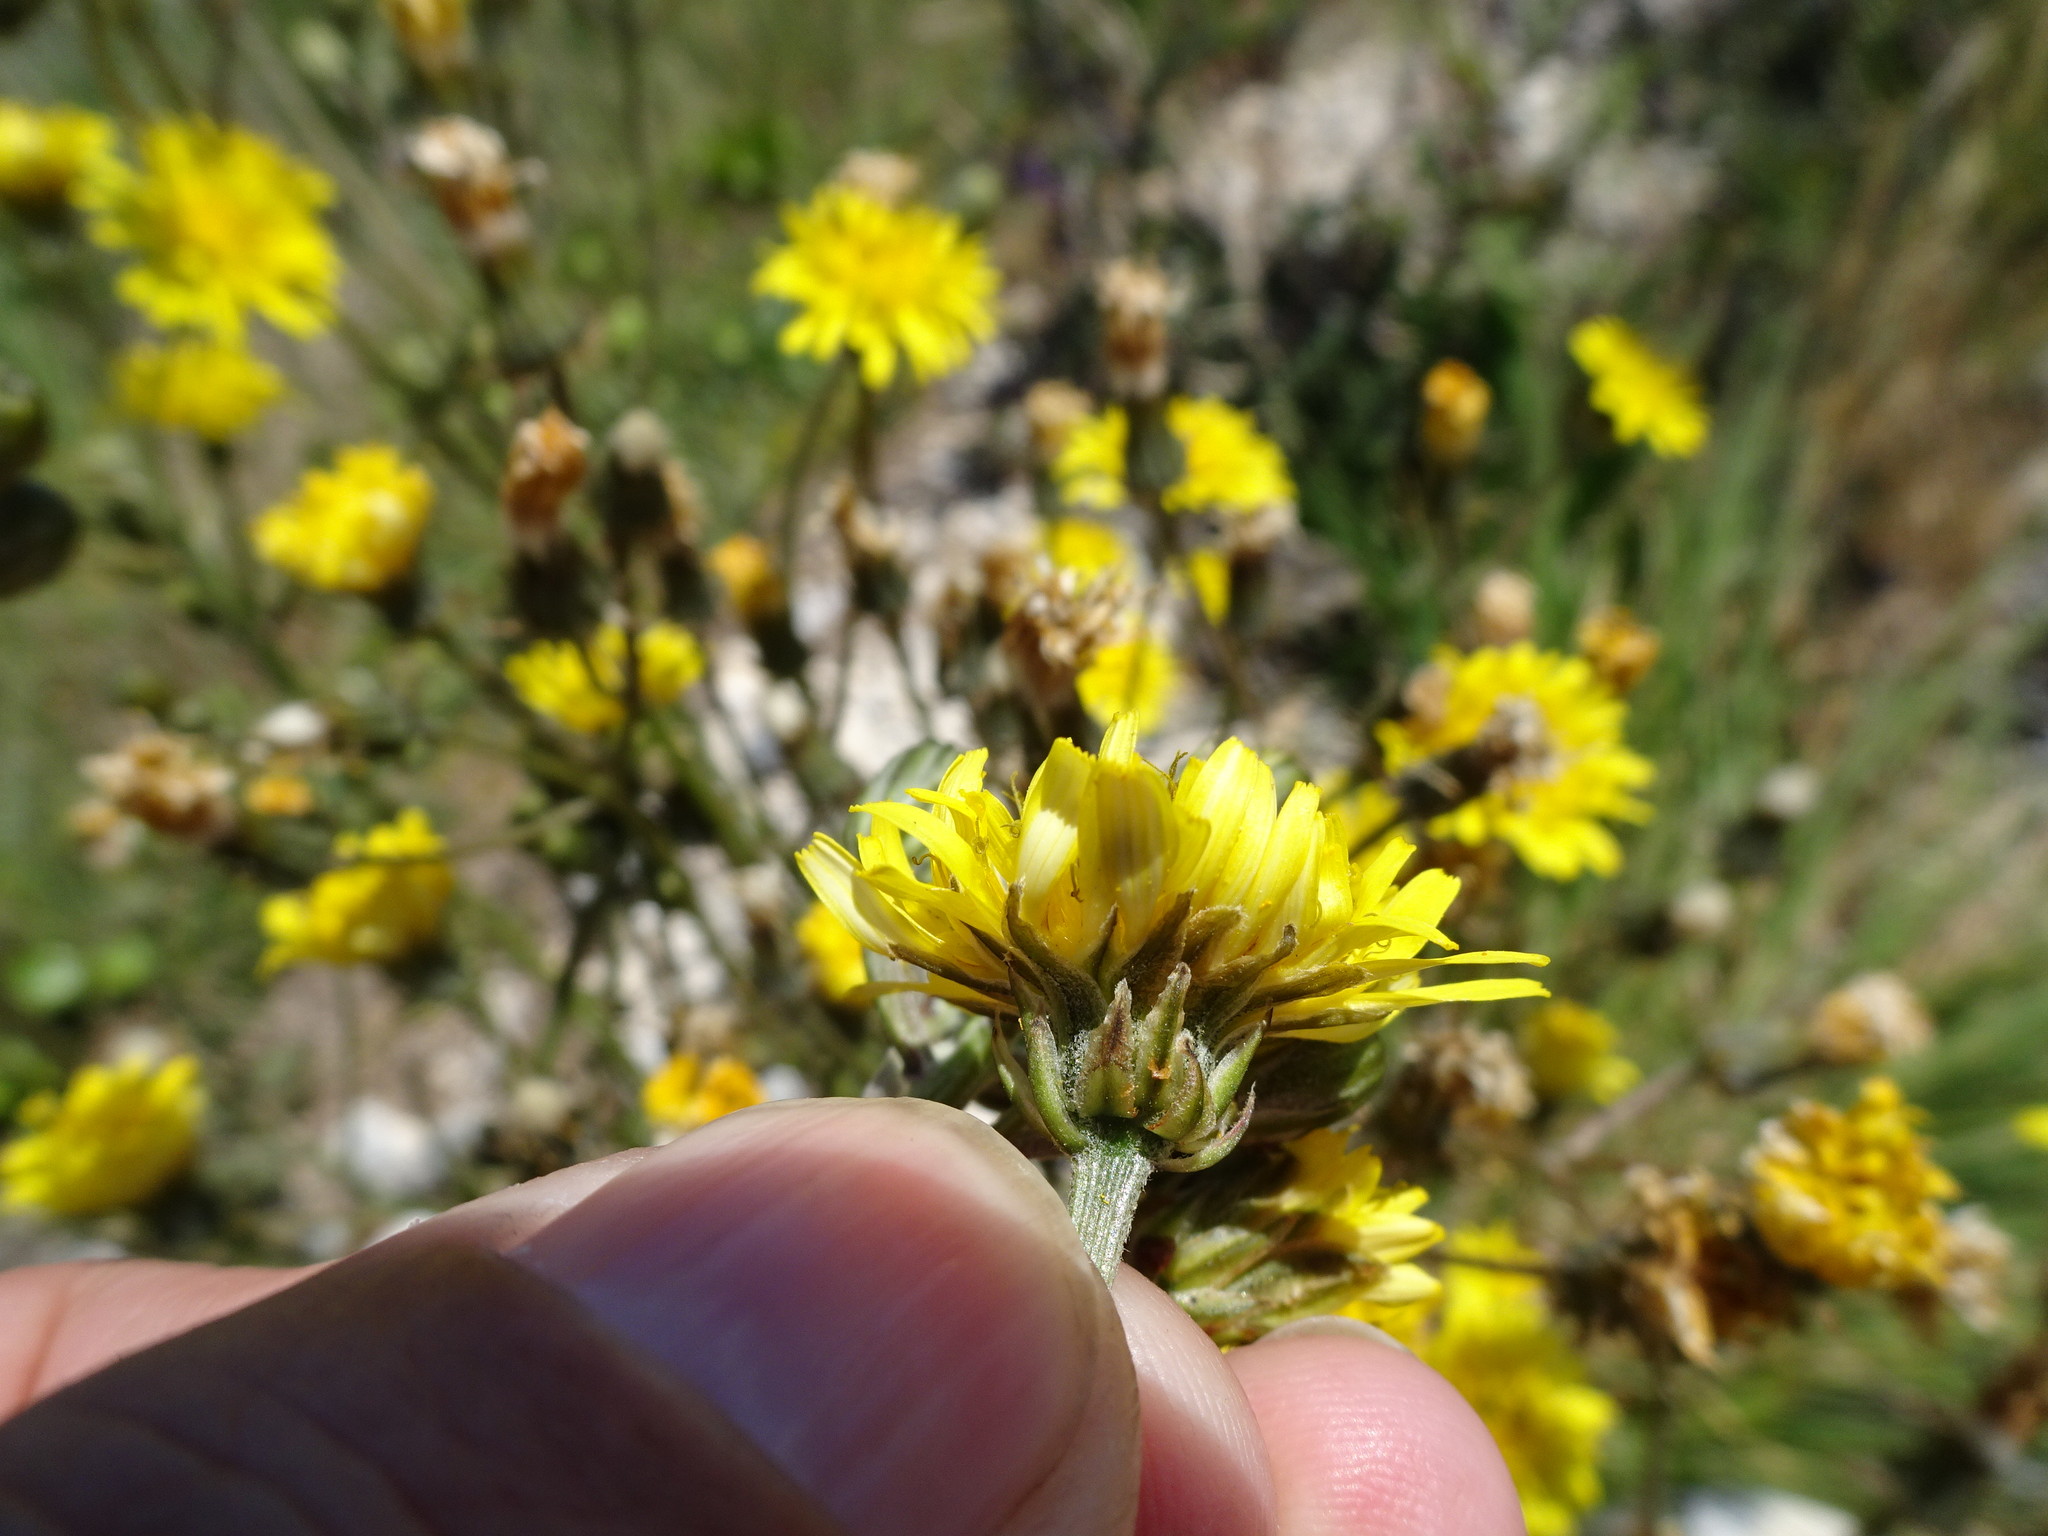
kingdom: Plantae
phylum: Tracheophyta
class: Magnoliopsida
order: Asterales
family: Asteraceae
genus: Crepis
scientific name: Crepis biennis
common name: Rough hawk's-beard
